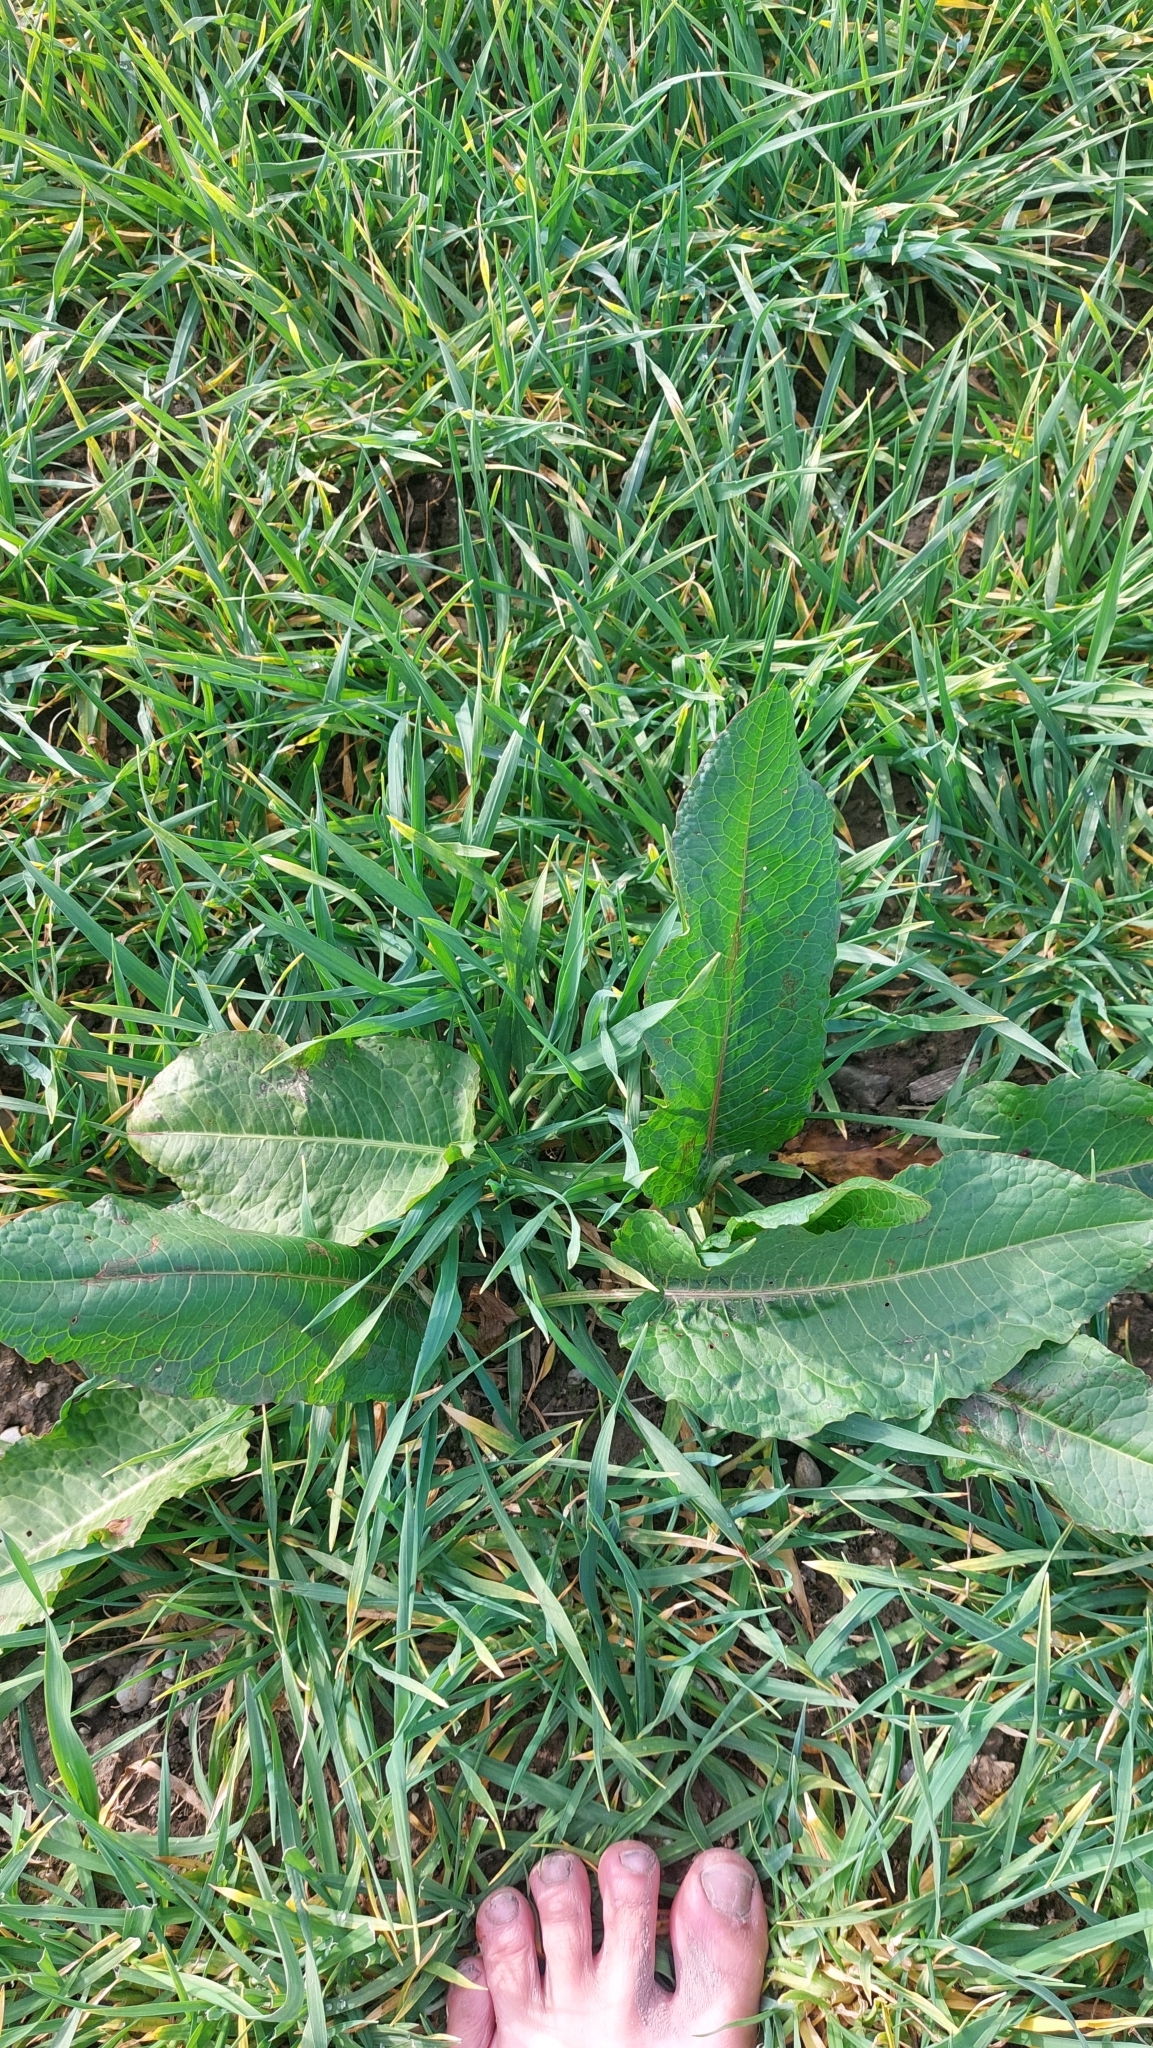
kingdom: Plantae
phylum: Tracheophyta
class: Magnoliopsida
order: Caryophyllales
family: Polygonaceae
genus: Rumex
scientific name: Rumex obtusifolius
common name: Bitter dock
